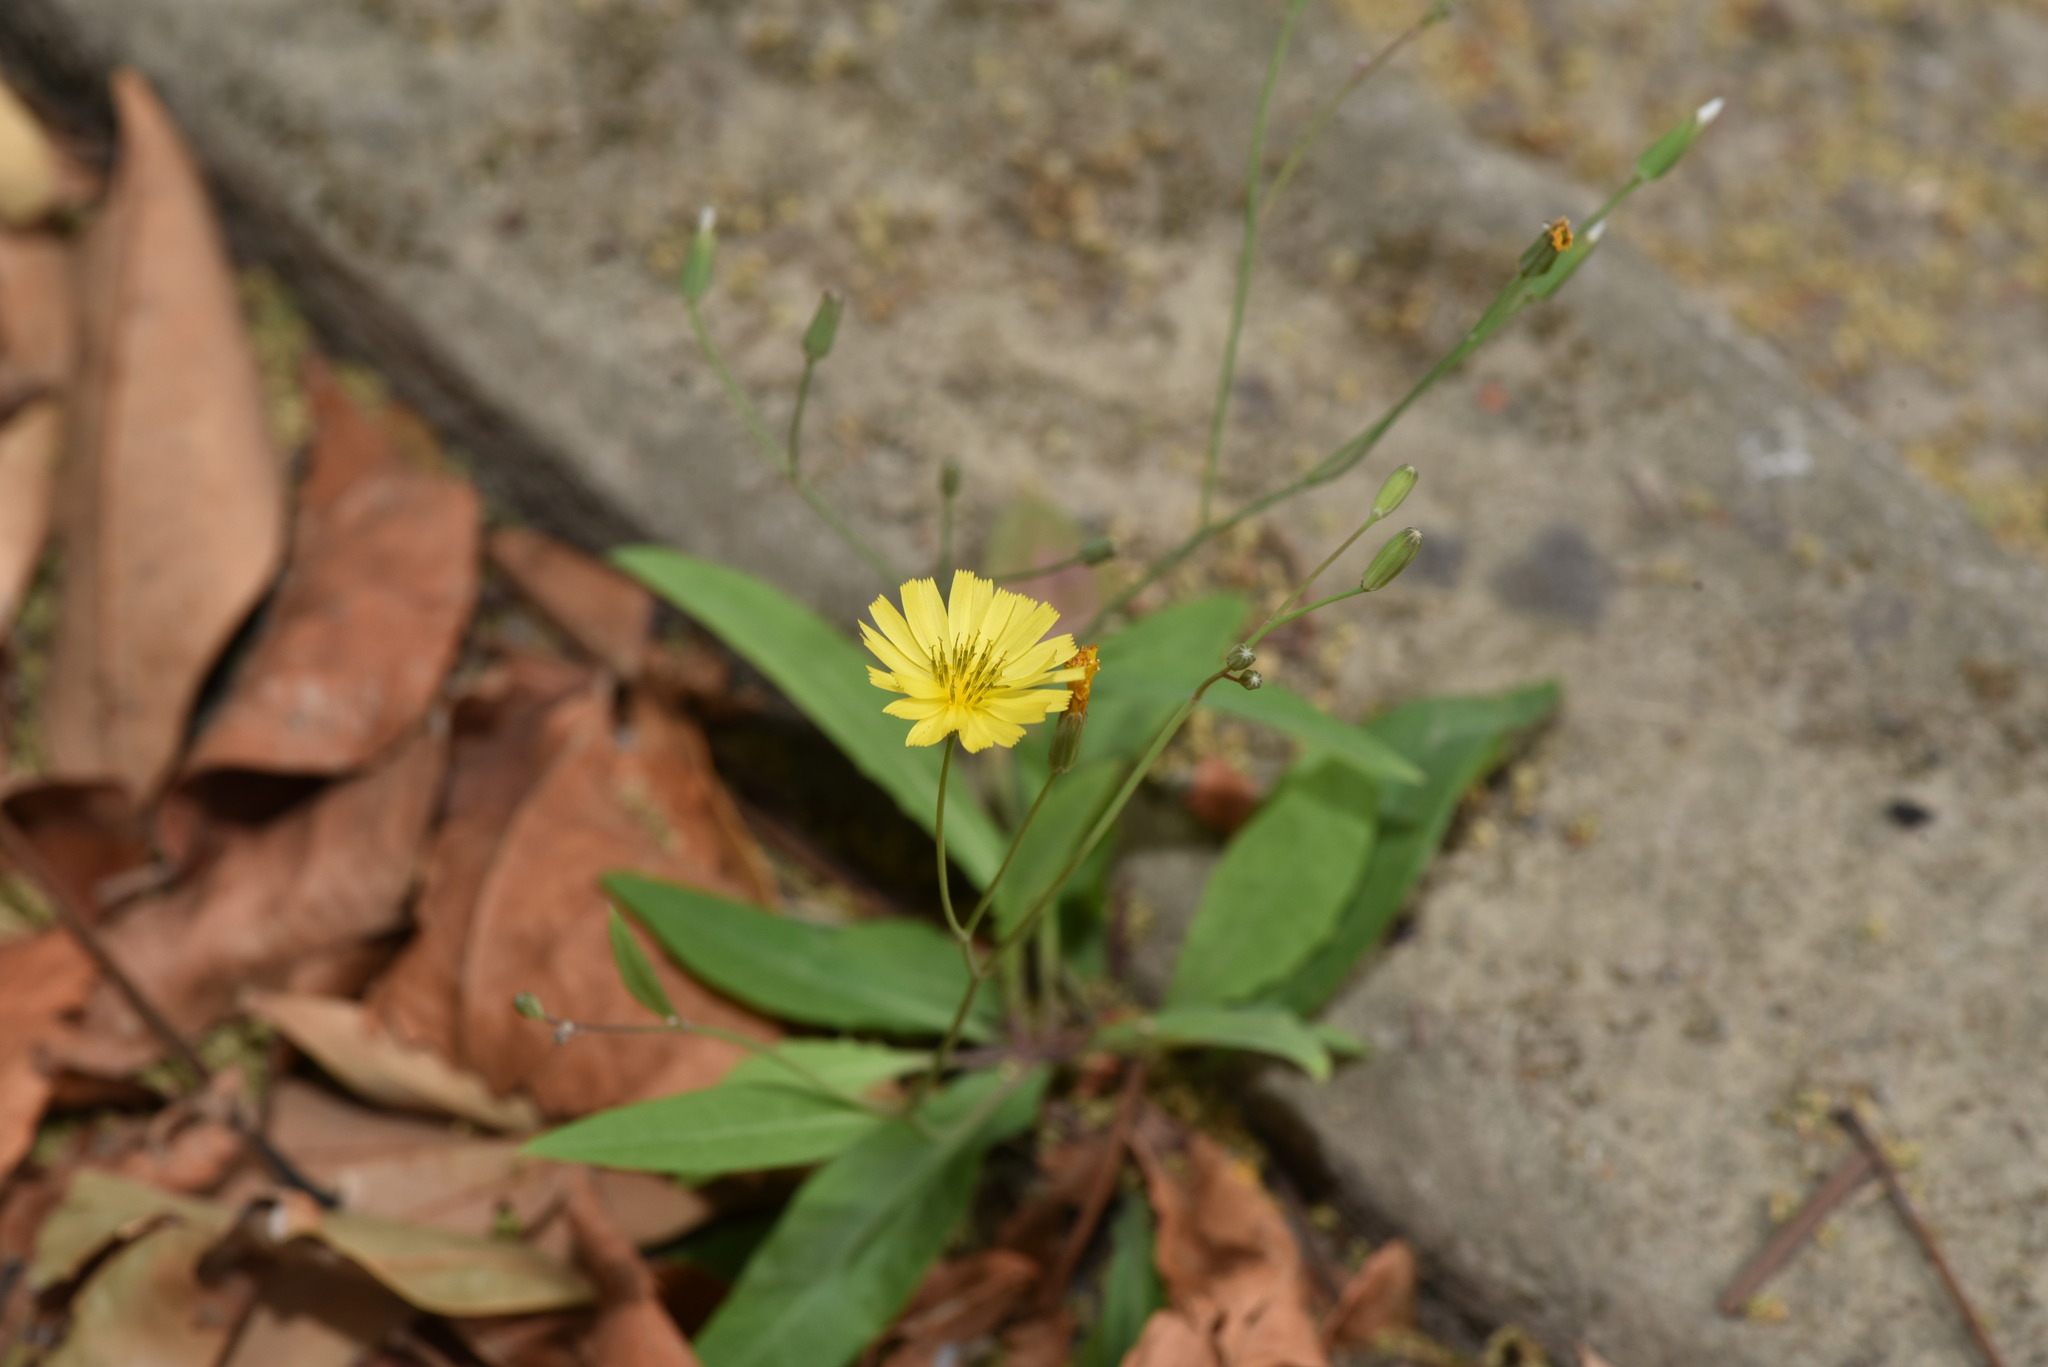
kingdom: Plantae
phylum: Tracheophyta
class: Magnoliopsida
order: Asterales
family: Asteraceae
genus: Ixeris
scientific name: Ixeris chinensis
